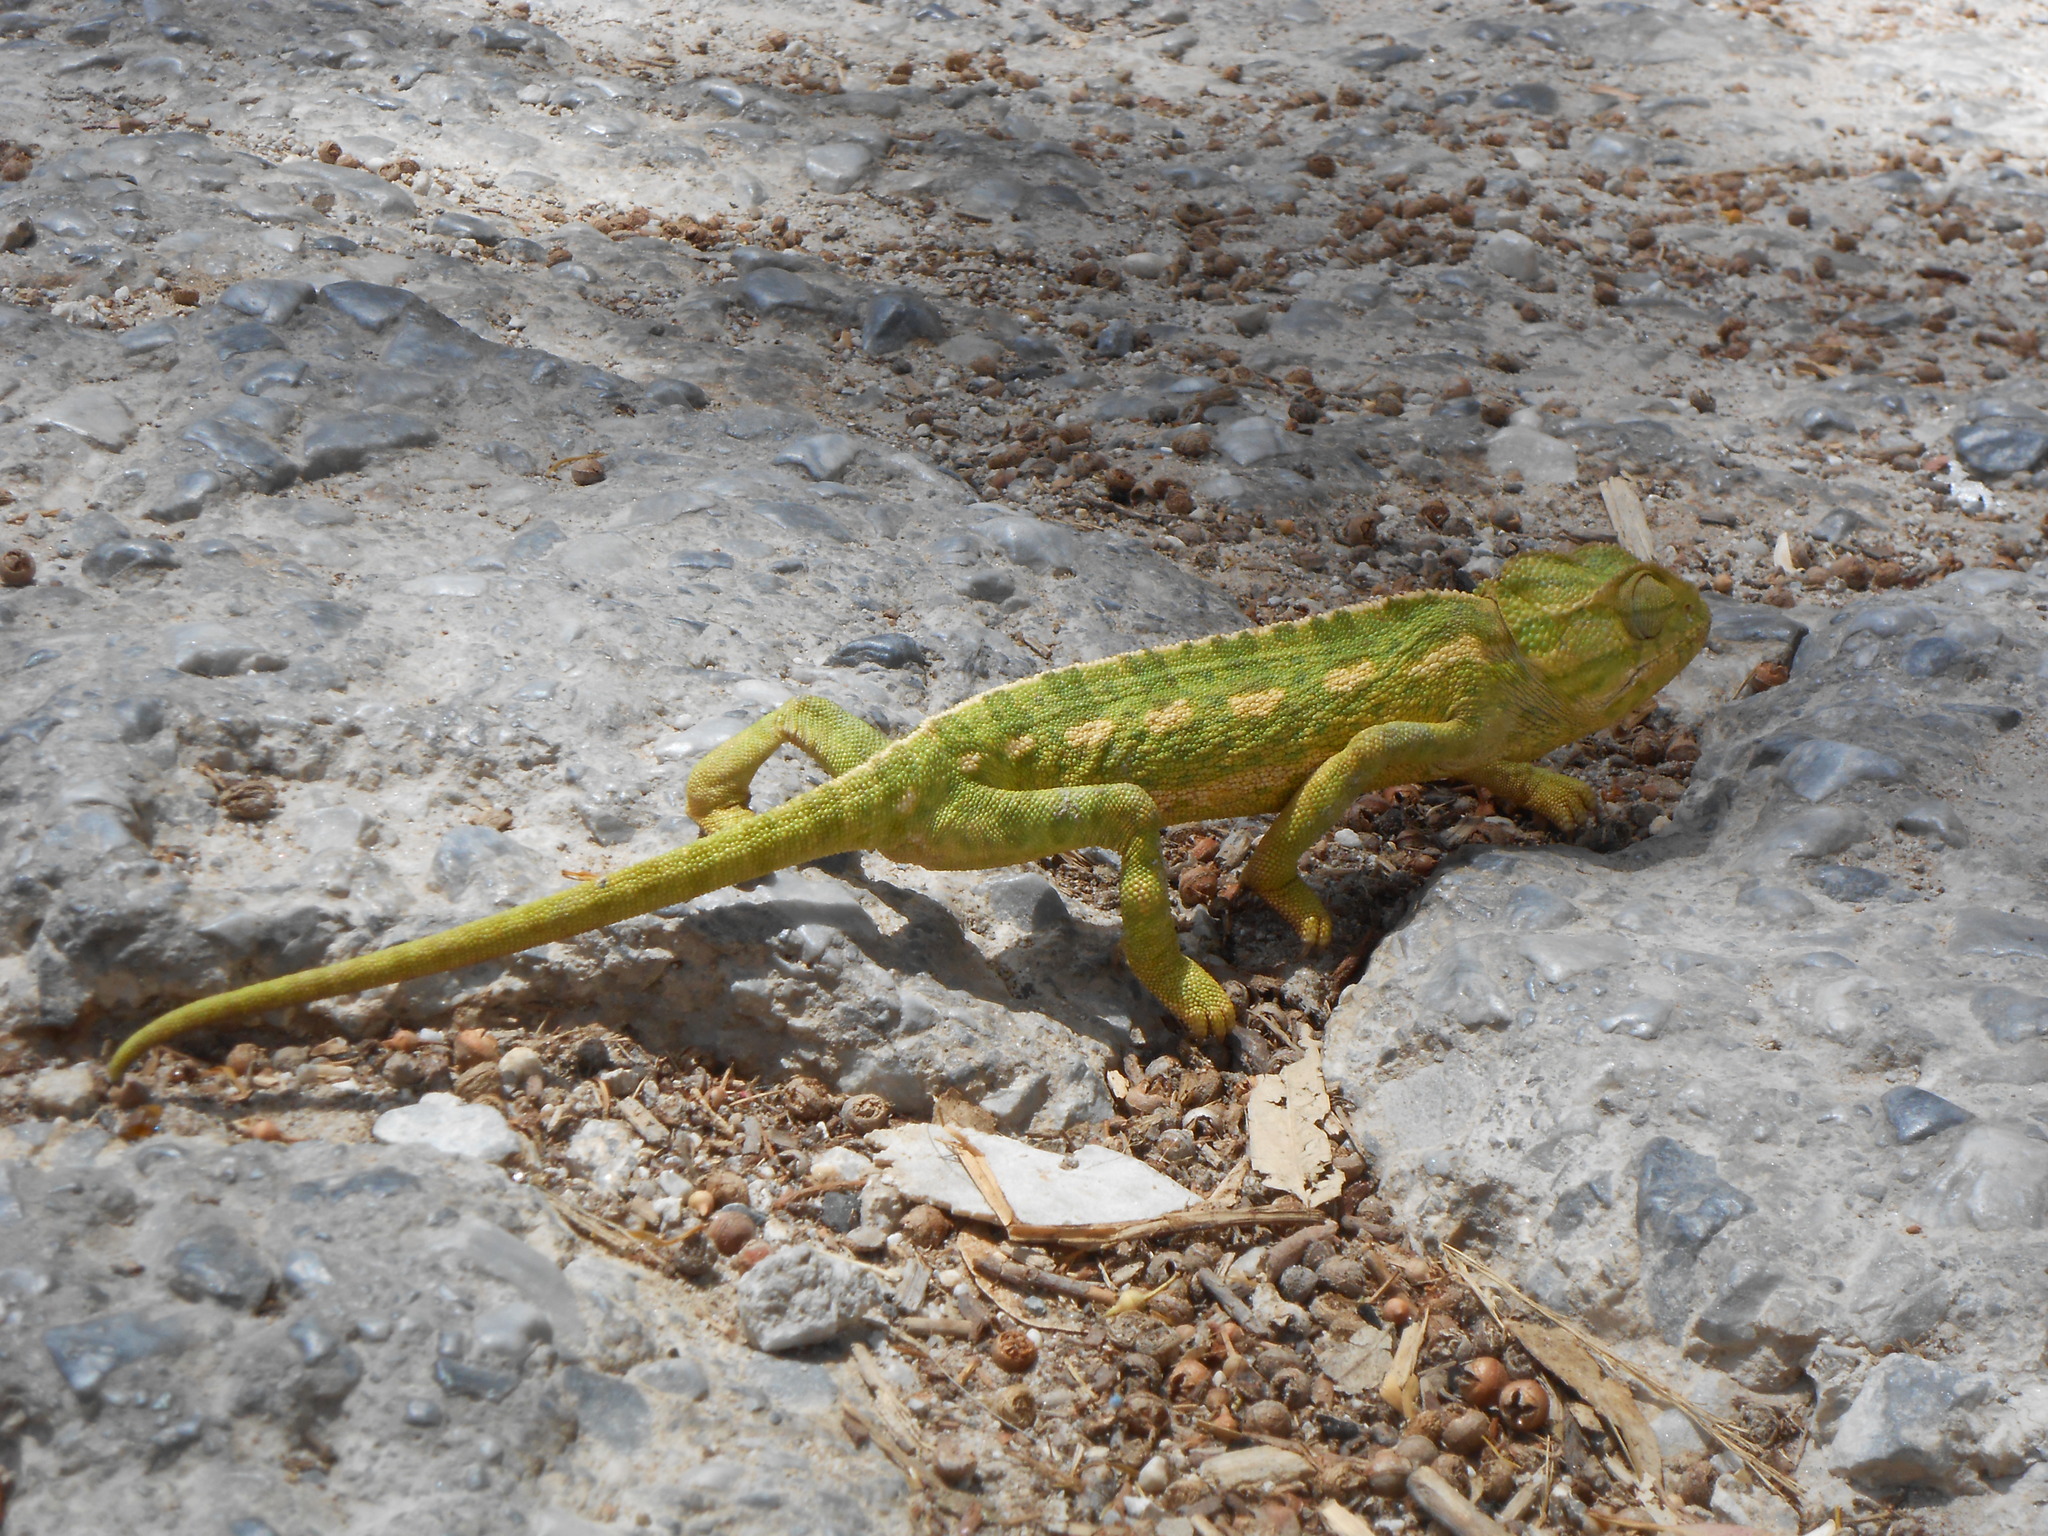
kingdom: Animalia
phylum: Chordata
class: Squamata
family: Chamaeleonidae
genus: Chamaeleo
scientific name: Chamaeleo chamaeleon
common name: Mediterranean chameleon
